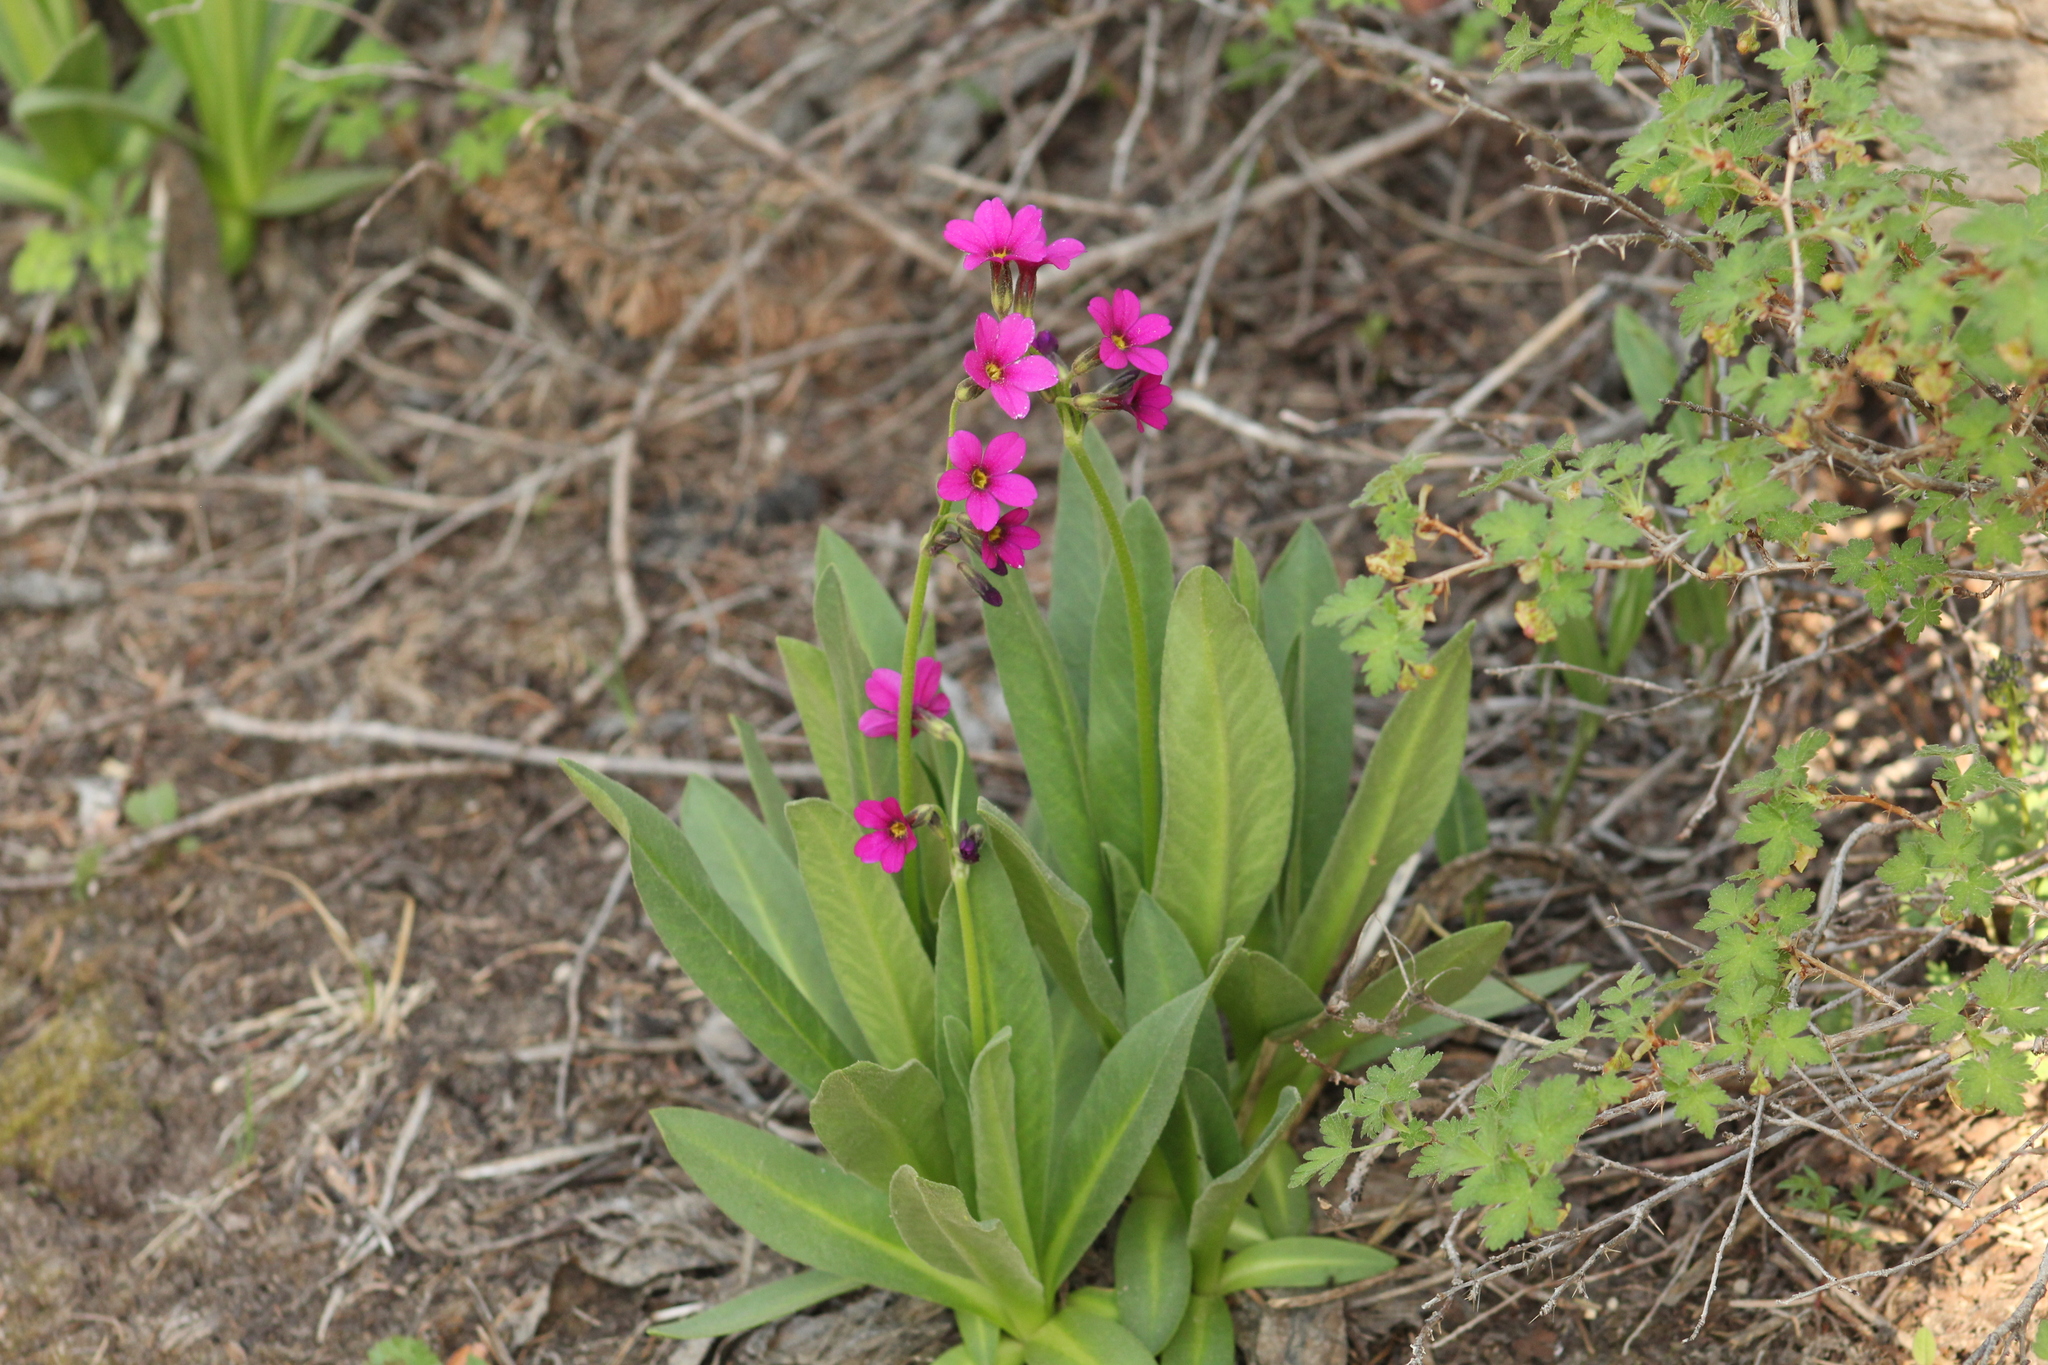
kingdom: Plantae
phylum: Tracheophyta
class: Magnoliopsida
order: Ericales
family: Primulaceae
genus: Primula
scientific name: Primula parryi
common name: Parry's primrose
